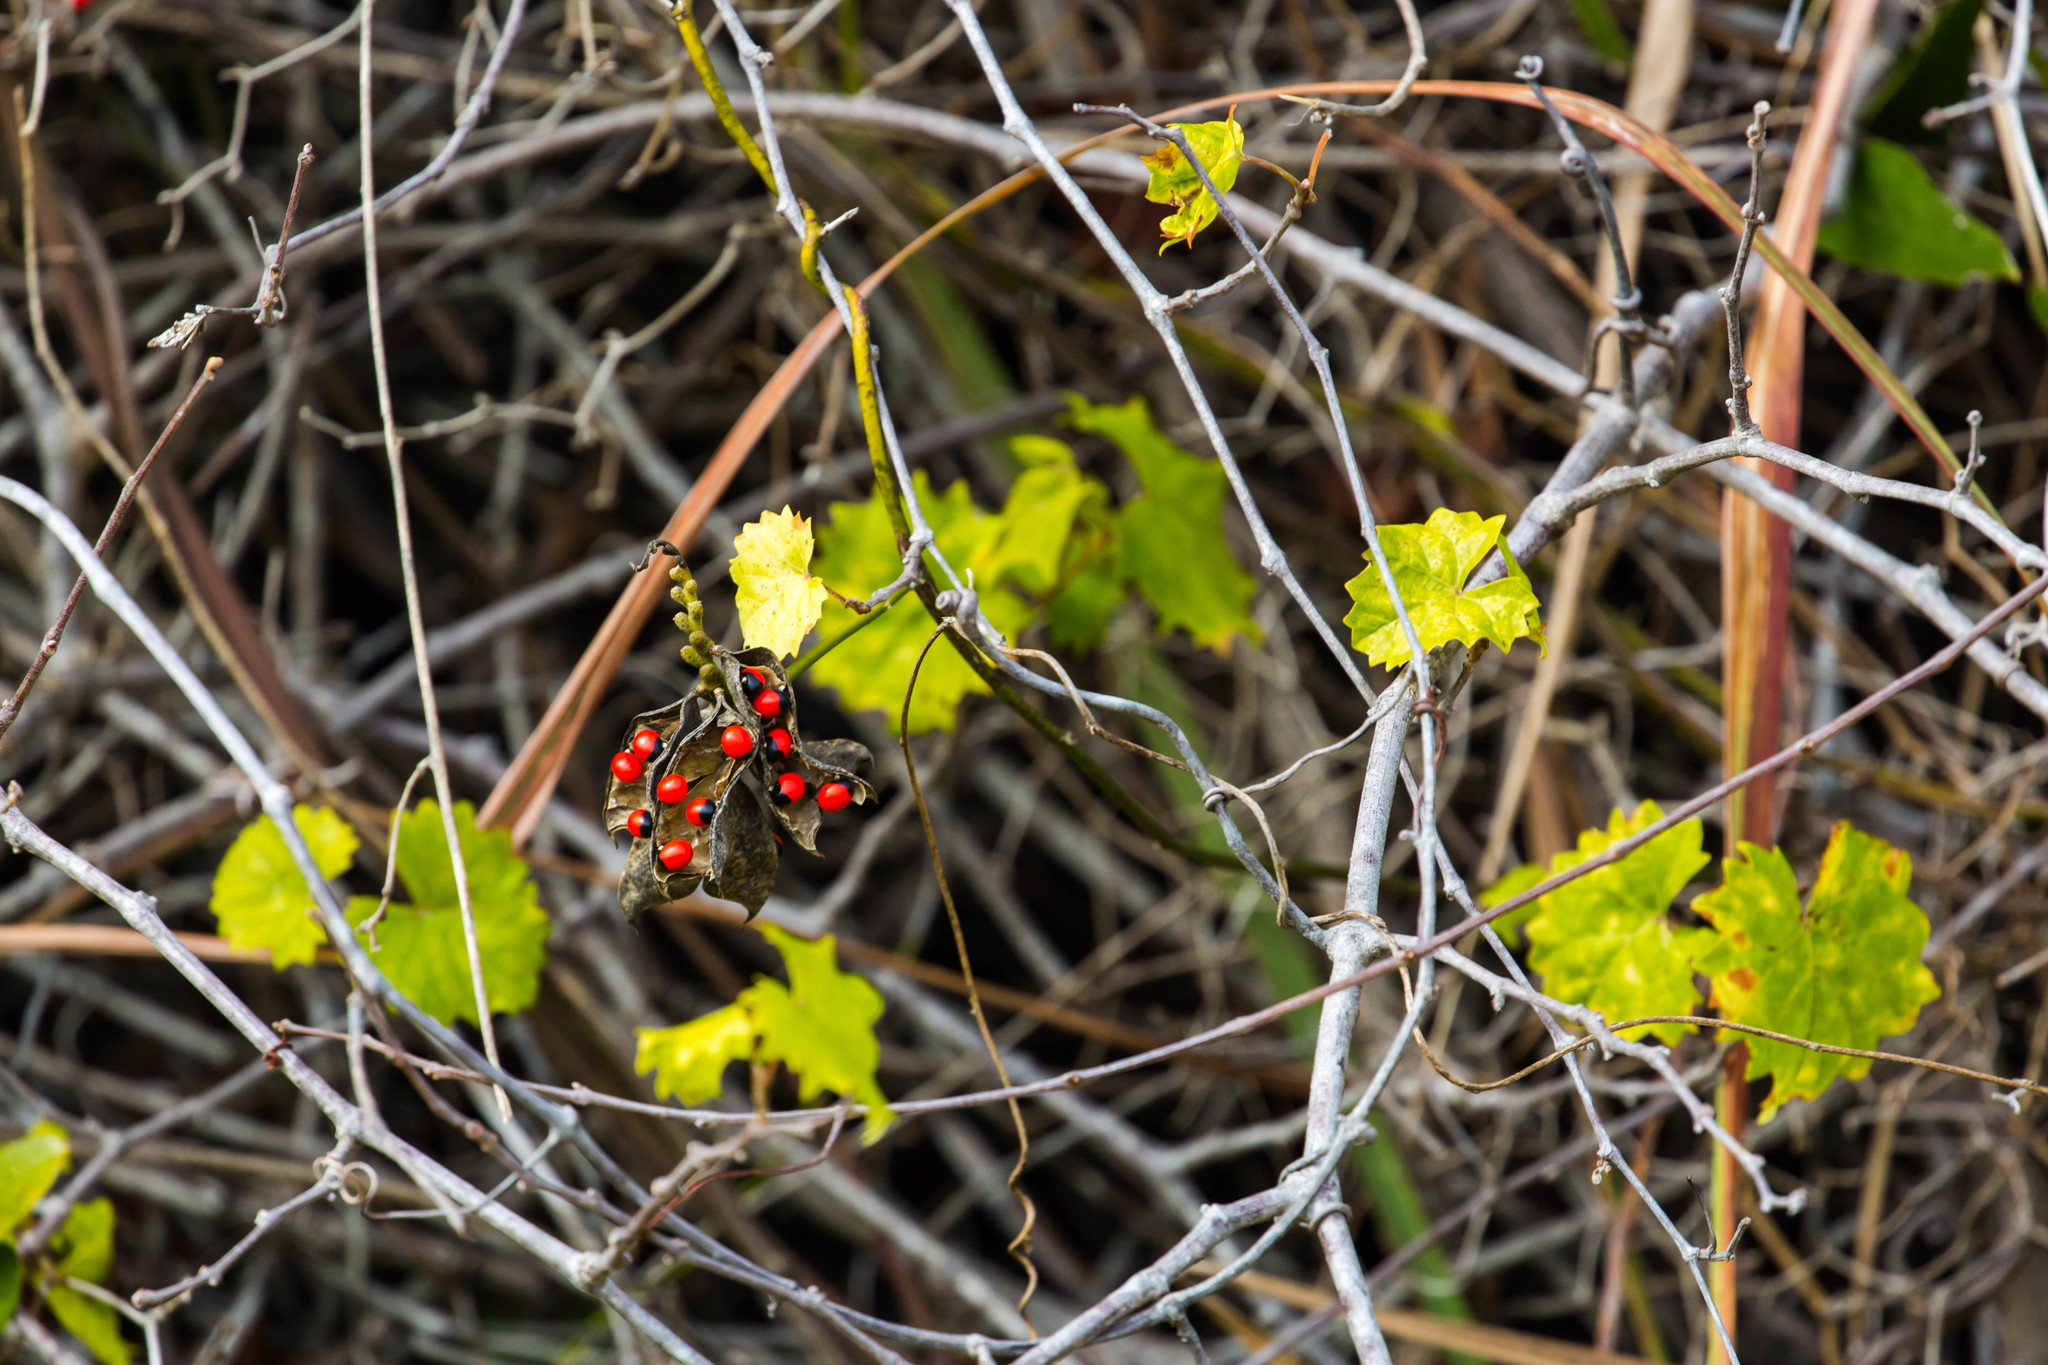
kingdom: Plantae
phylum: Tracheophyta
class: Magnoliopsida
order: Fabales
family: Fabaceae
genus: Abrus
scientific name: Abrus precatorius
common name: Rosarypea
